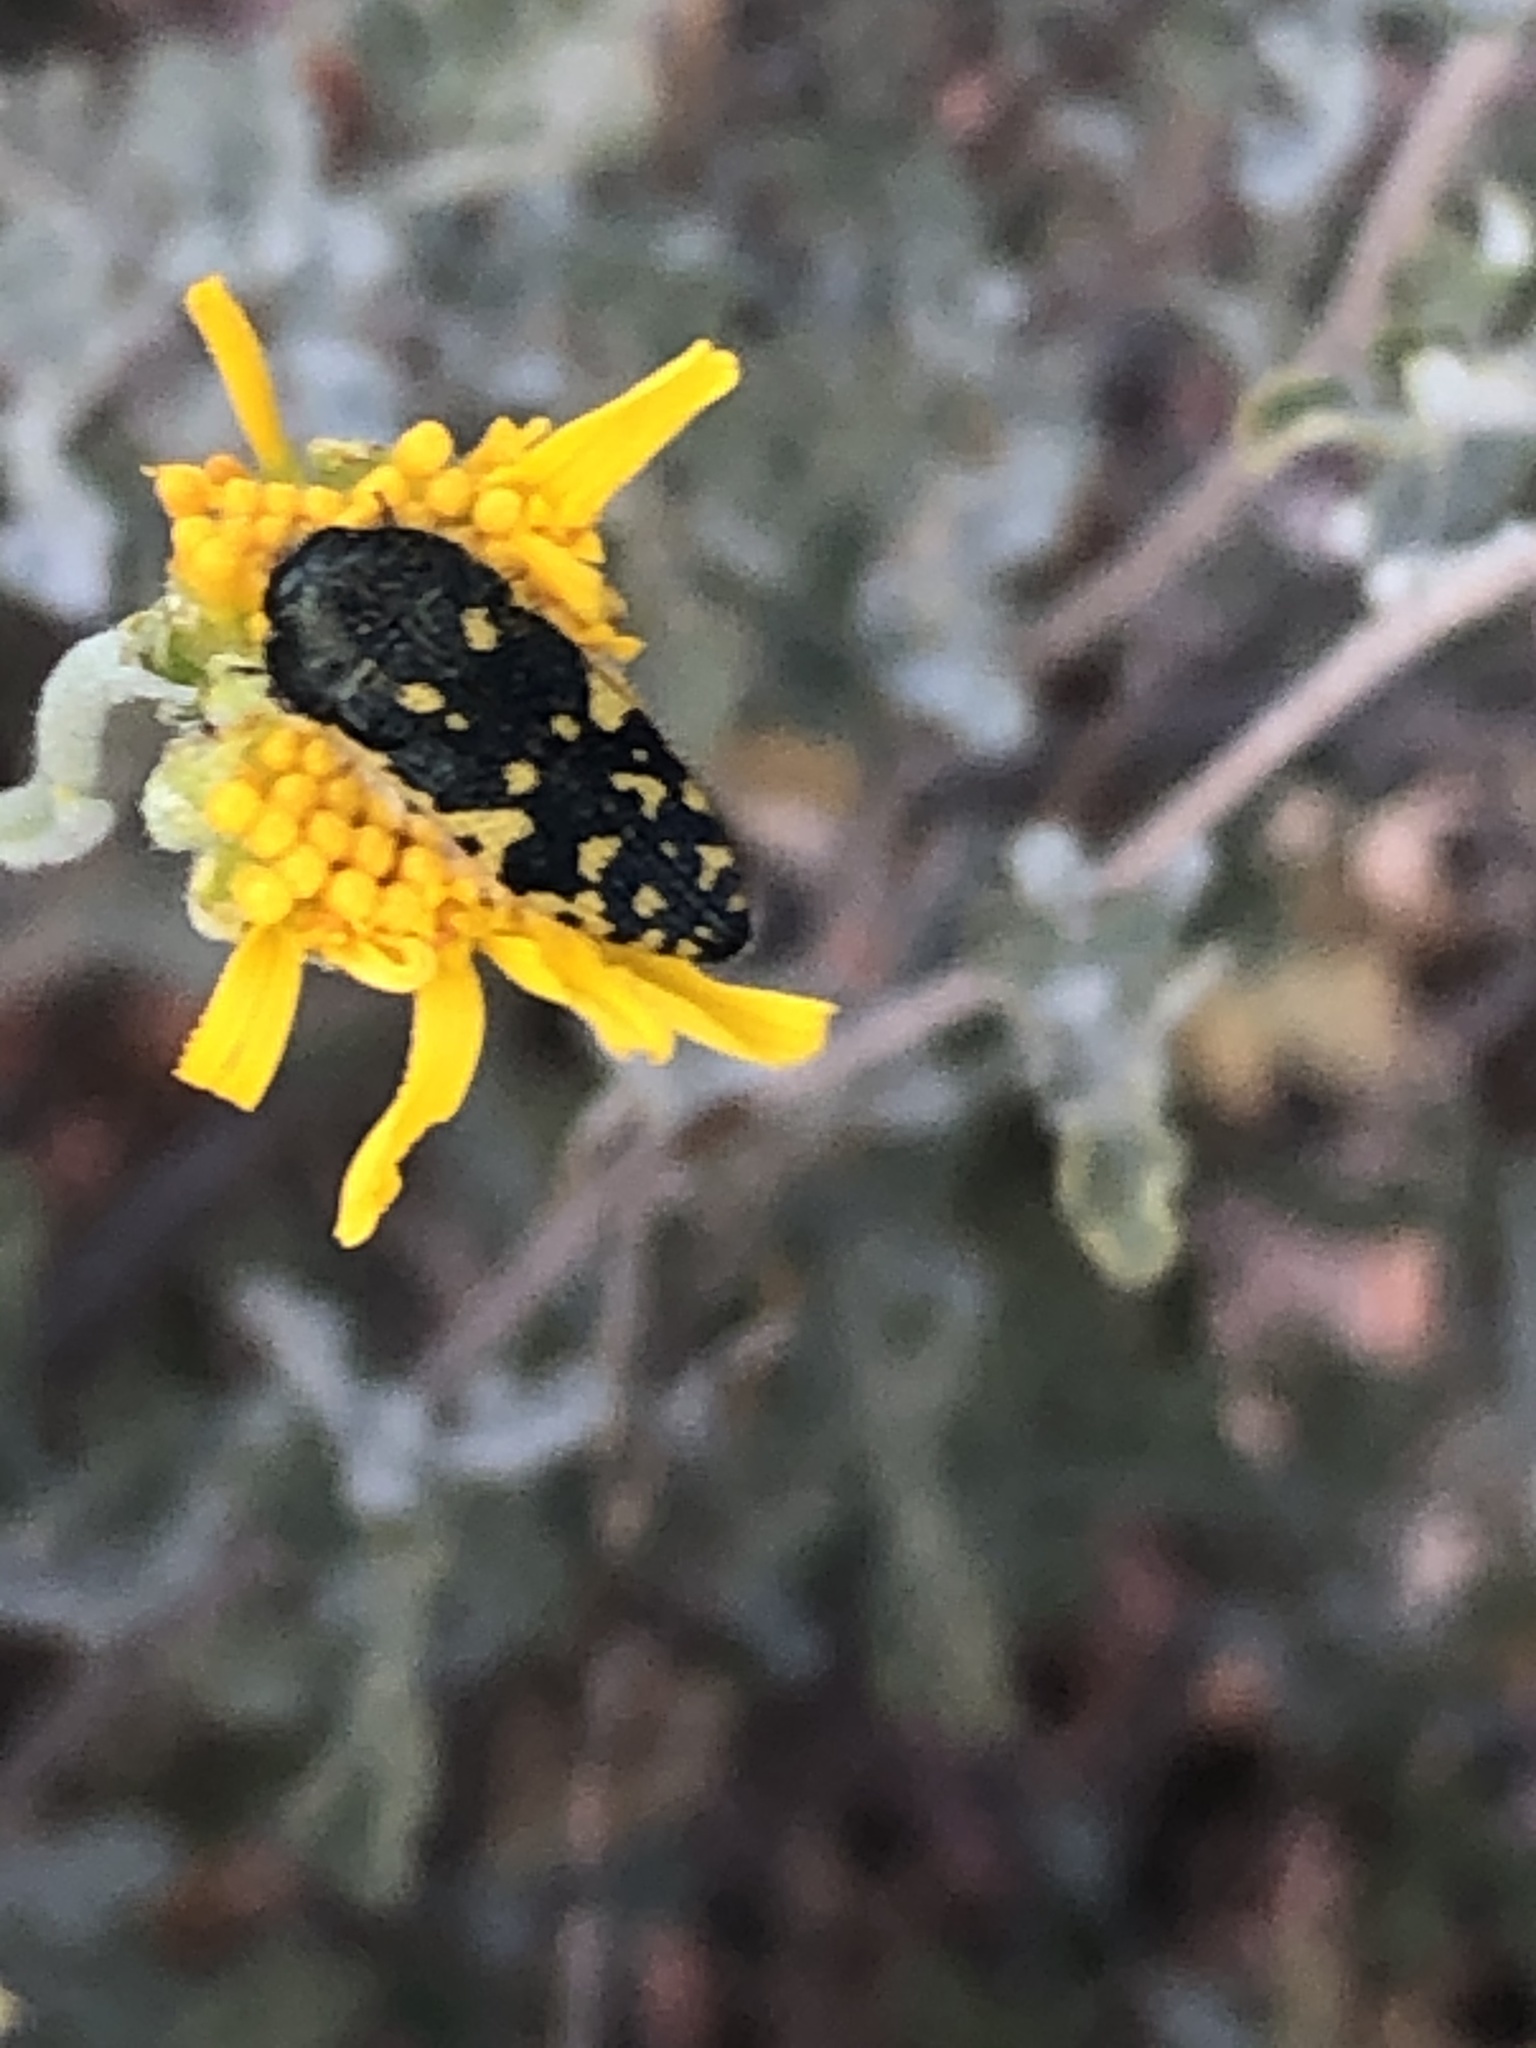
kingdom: Animalia
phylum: Arthropoda
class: Insecta
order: Coleoptera
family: Buprestidae
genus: Acmaeodera
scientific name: Acmaeodera flavopicta
